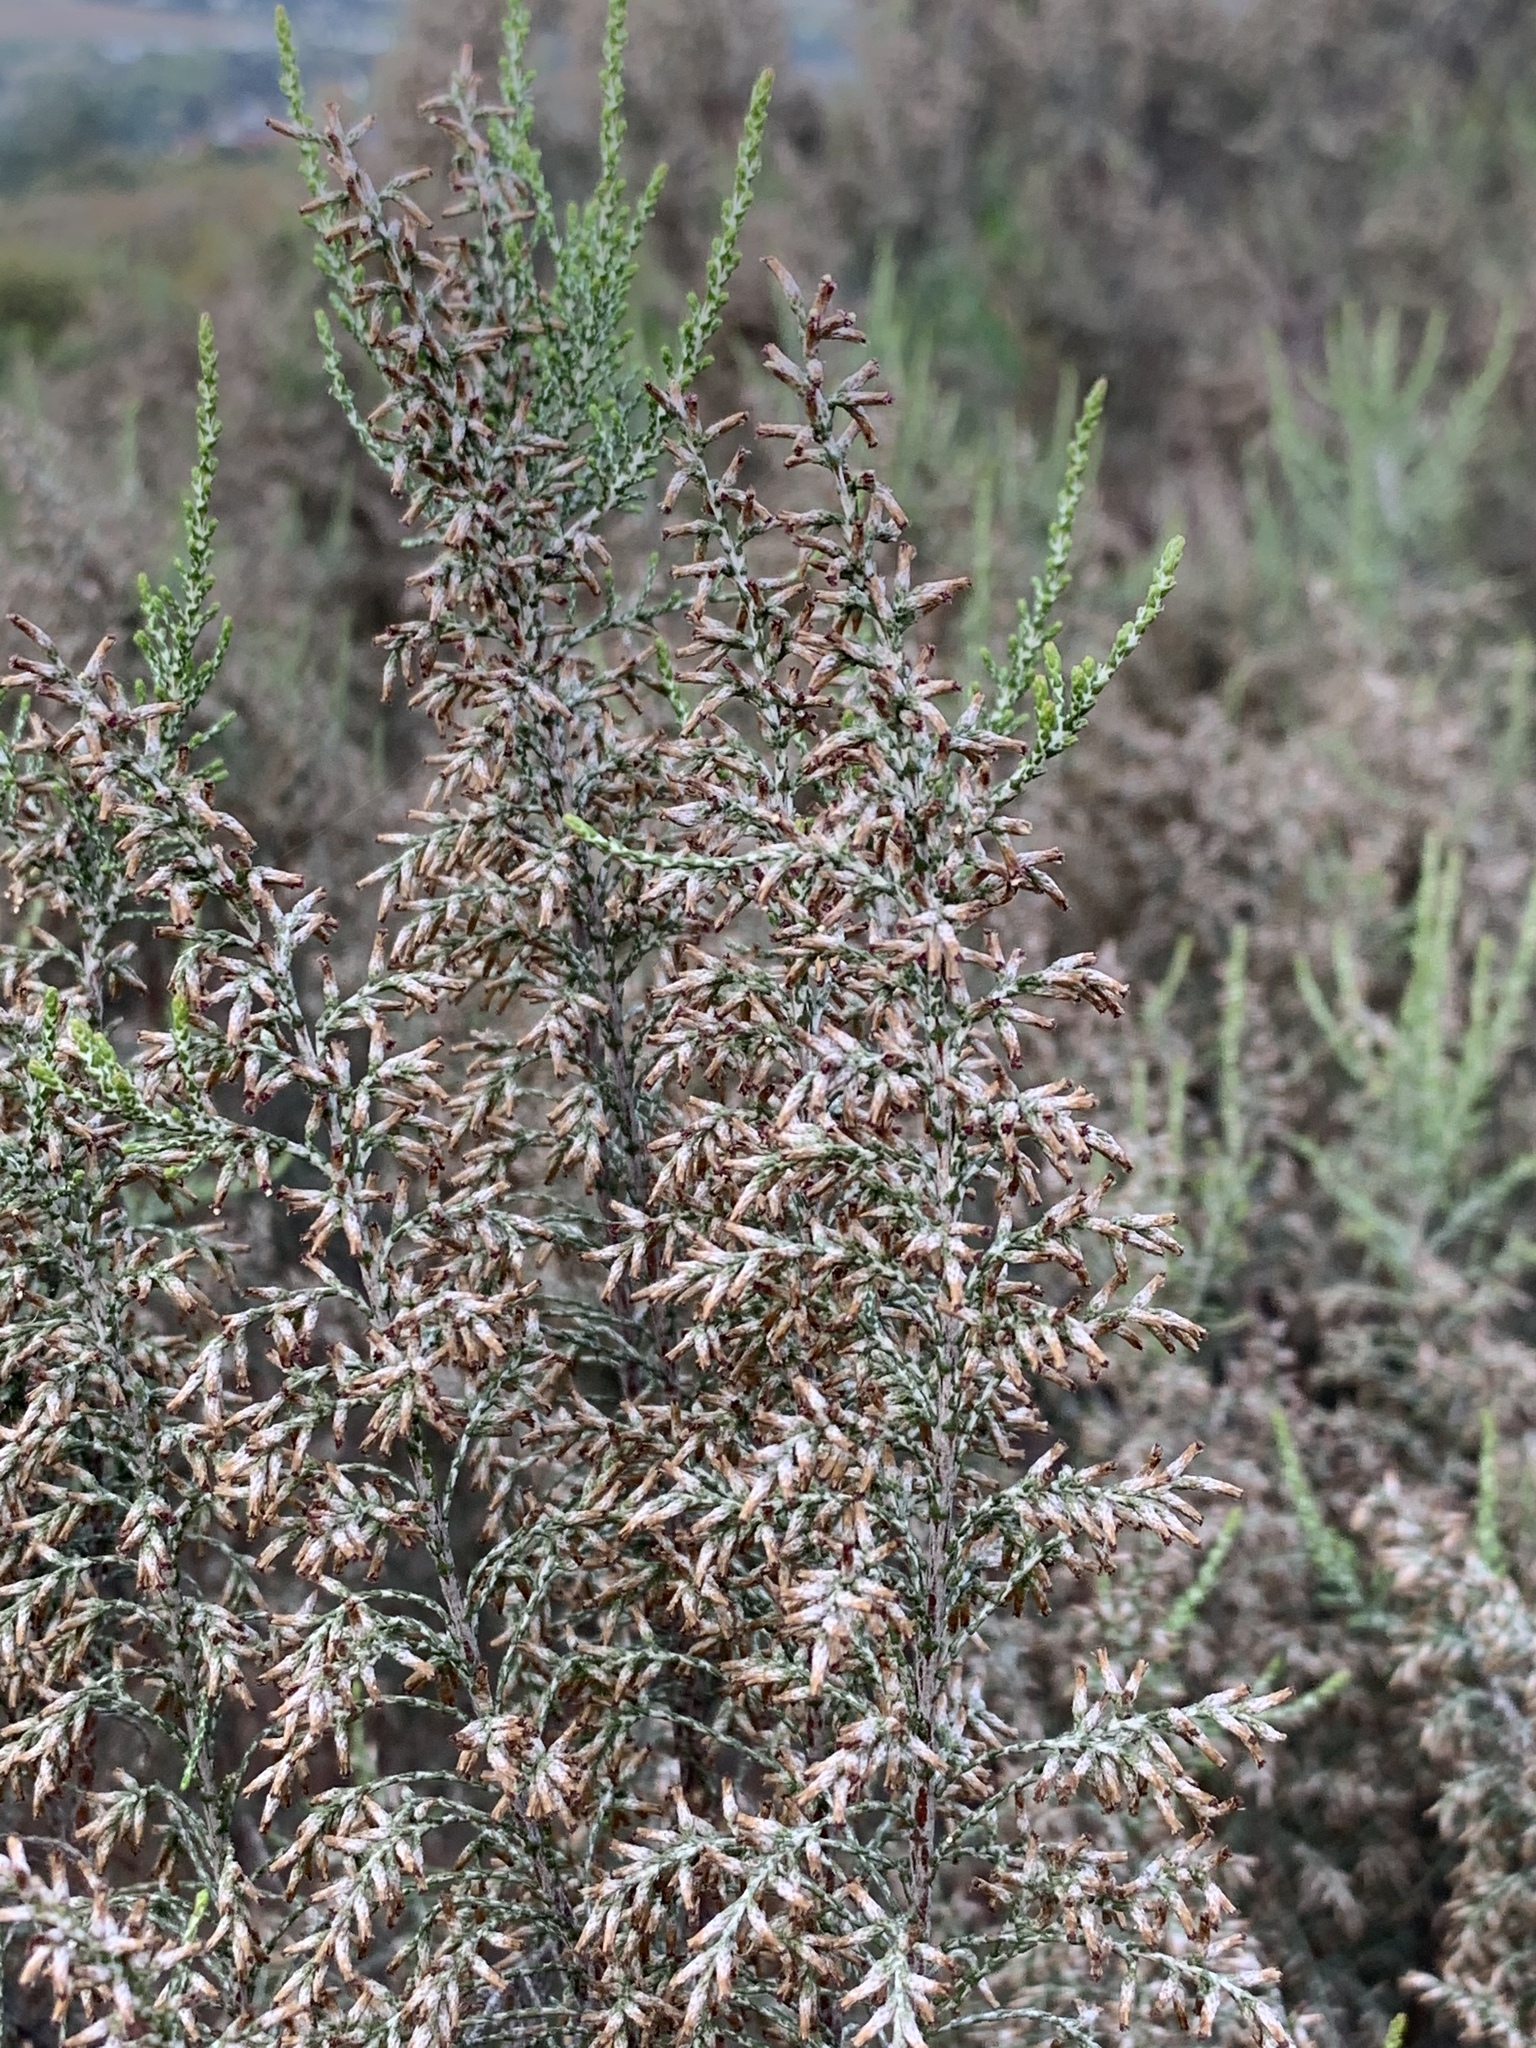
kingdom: Plantae
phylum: Tracheophyta
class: Magnoliopsida
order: Asterales
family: Asteraceae
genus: Dicerothamnus
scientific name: Dicerothamnus rhinocerotis
